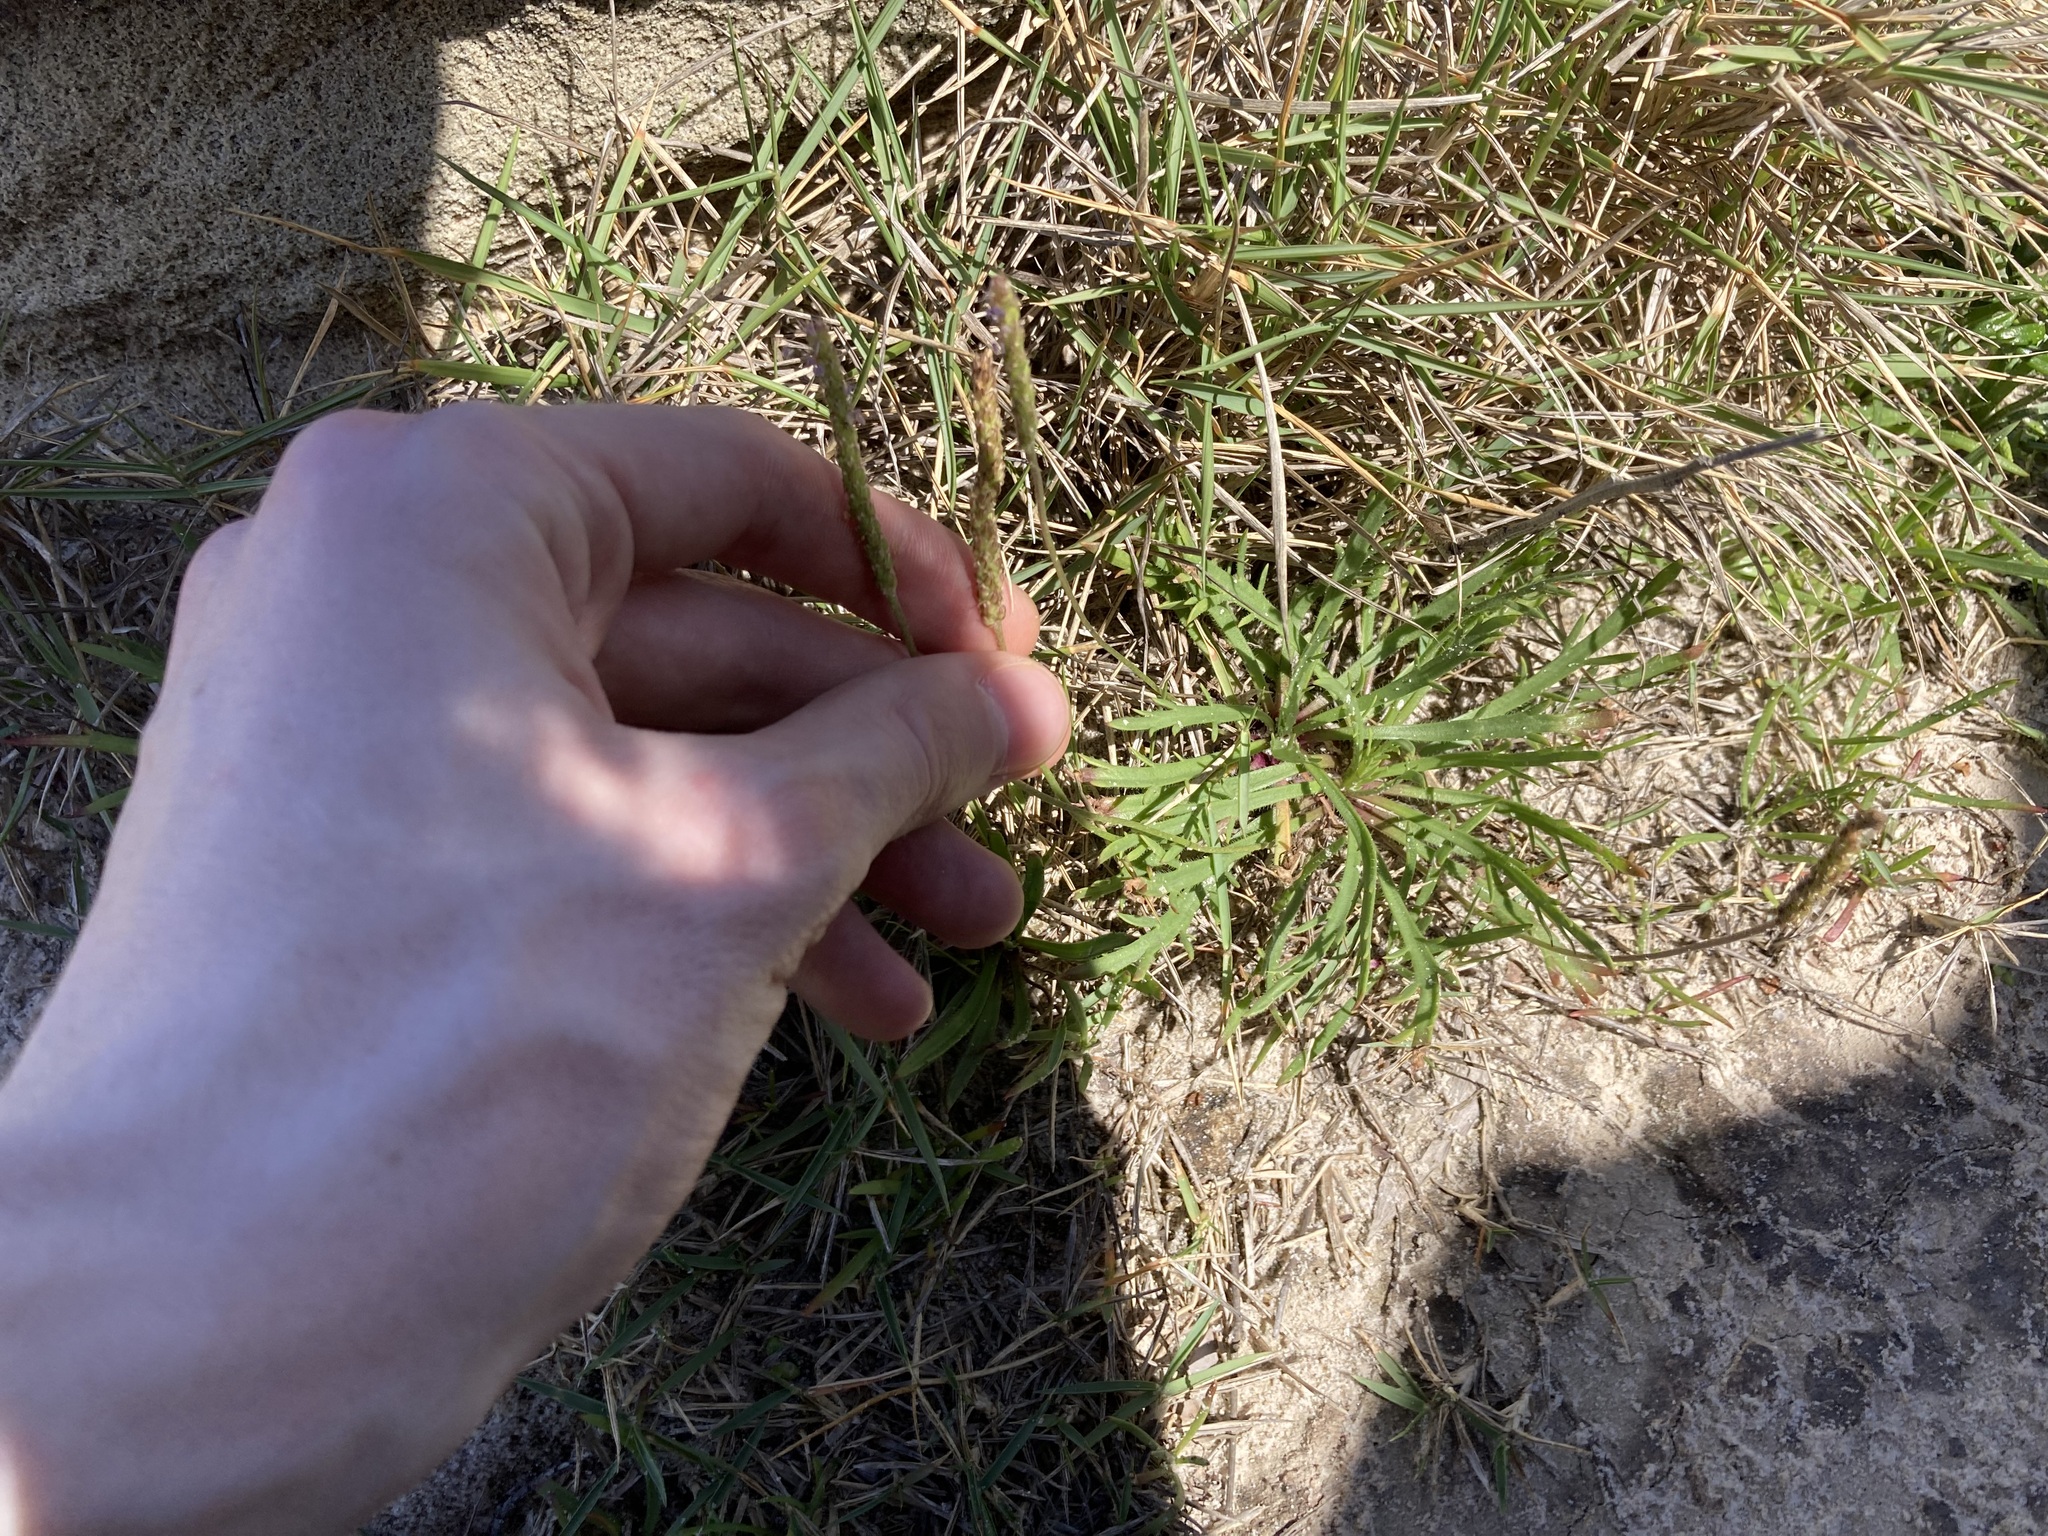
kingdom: Plantae
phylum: Tracheophyta
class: Magnoliopsida
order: Lamiales
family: Plantaginaceae
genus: Plantago
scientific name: Plantago coronopus
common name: Buck's-horn plantain
